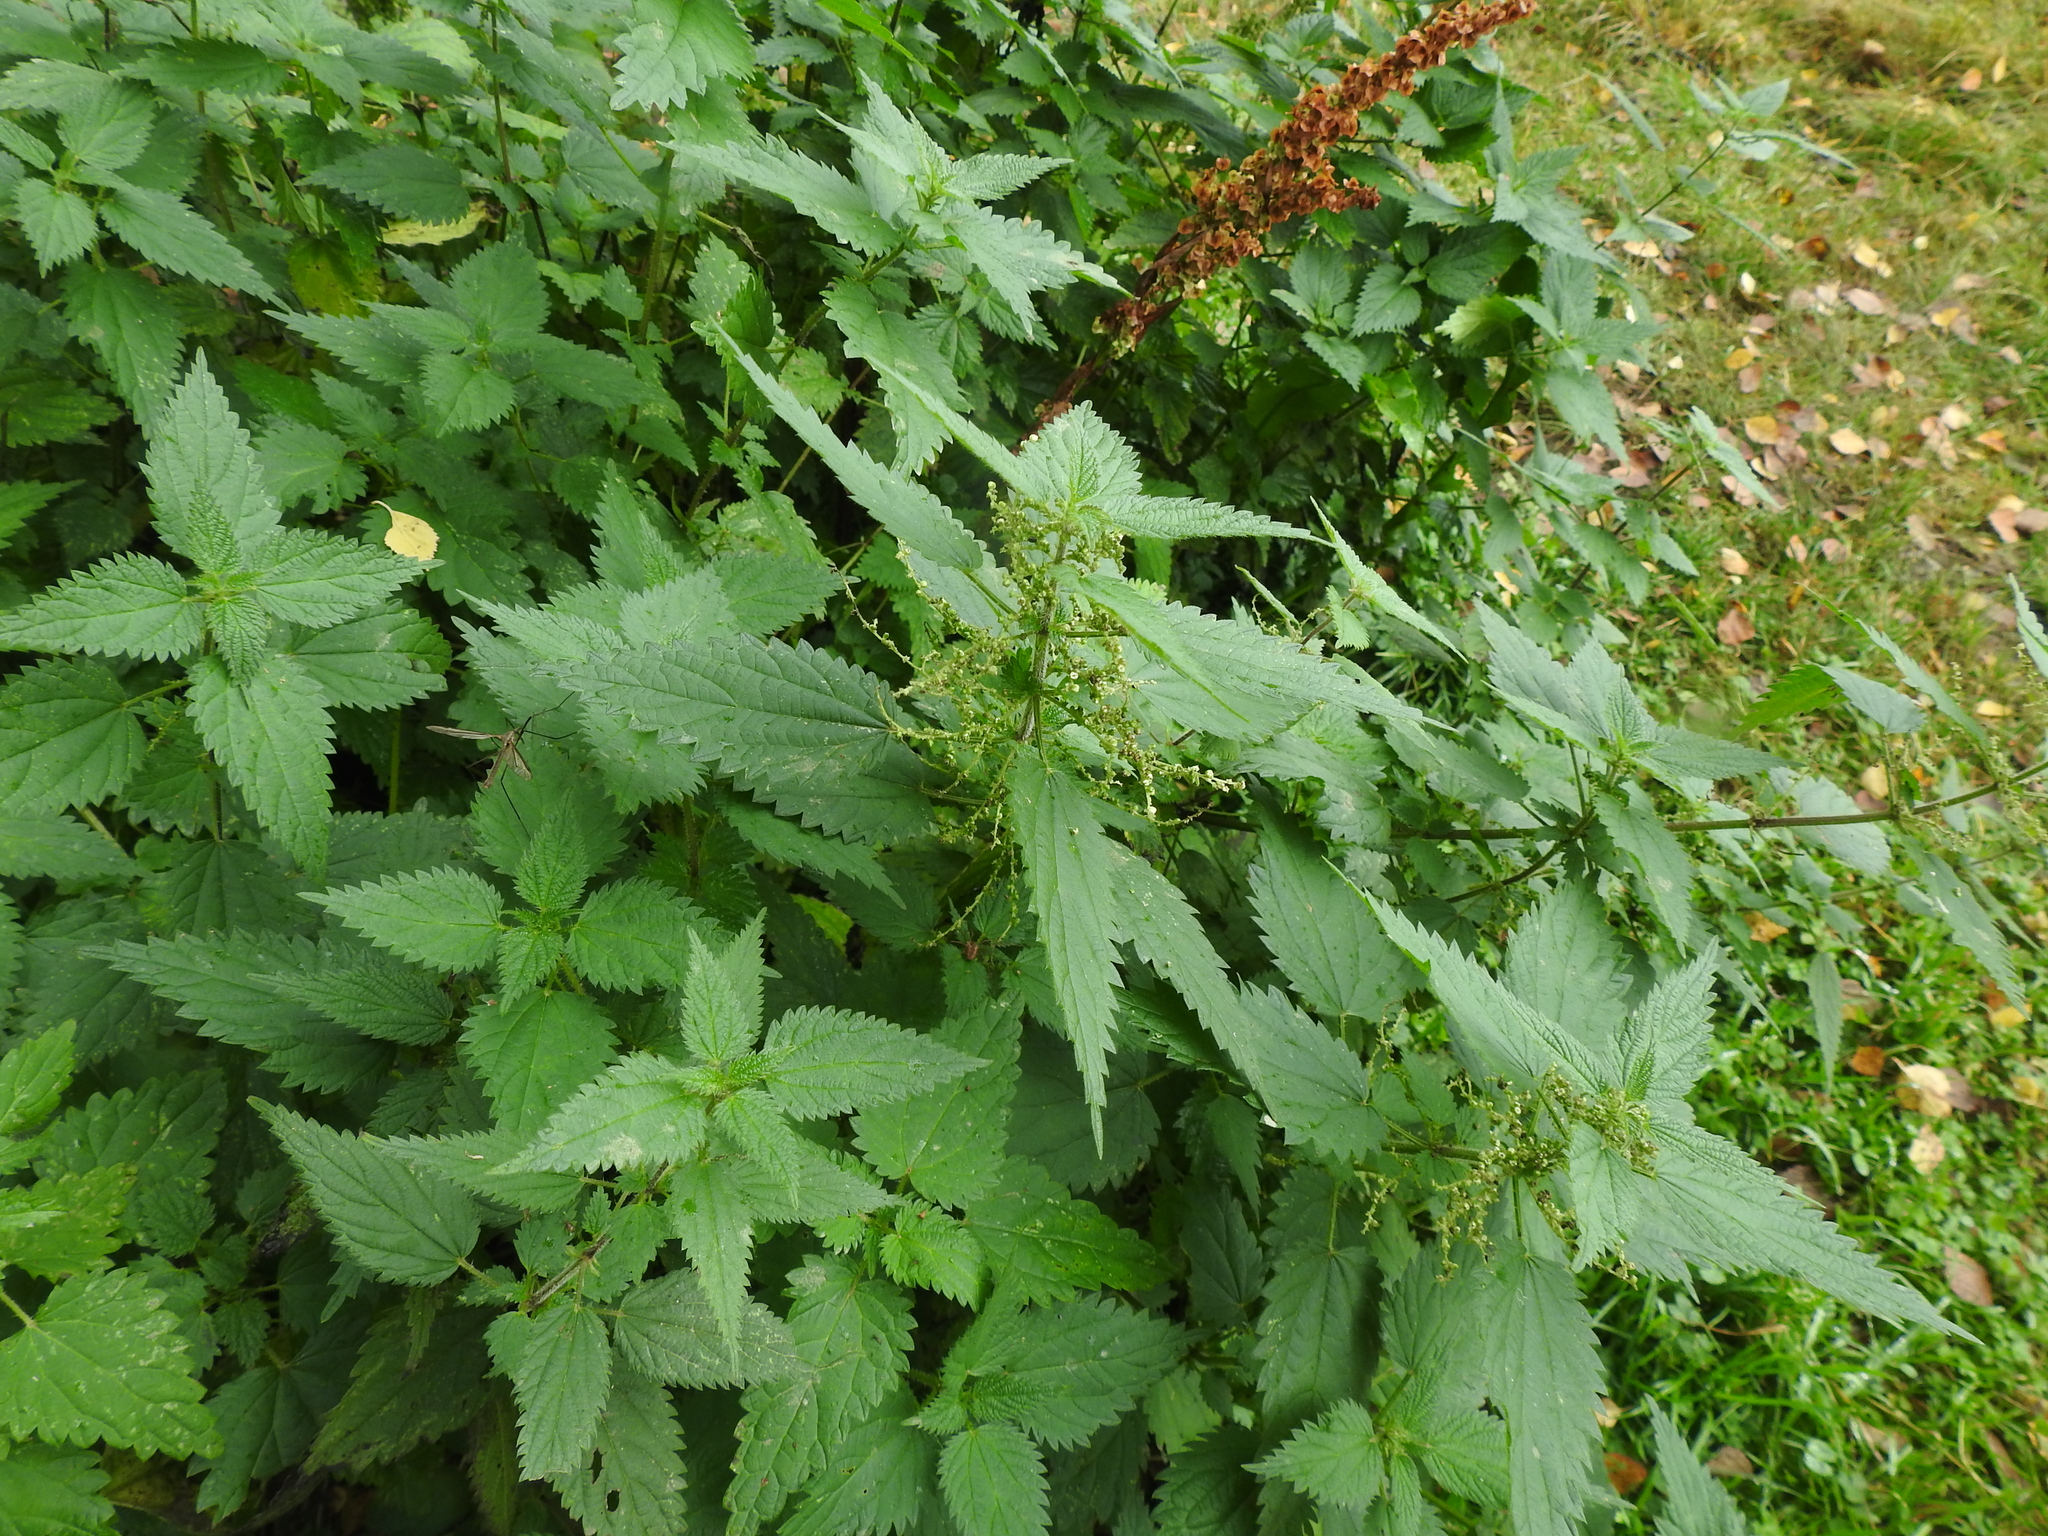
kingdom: Plantae
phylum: Tracheophyta
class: Magnoliopsida
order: Rosales
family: Urticaceae
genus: Urtica
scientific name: Urtica dioica
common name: Common nettle
